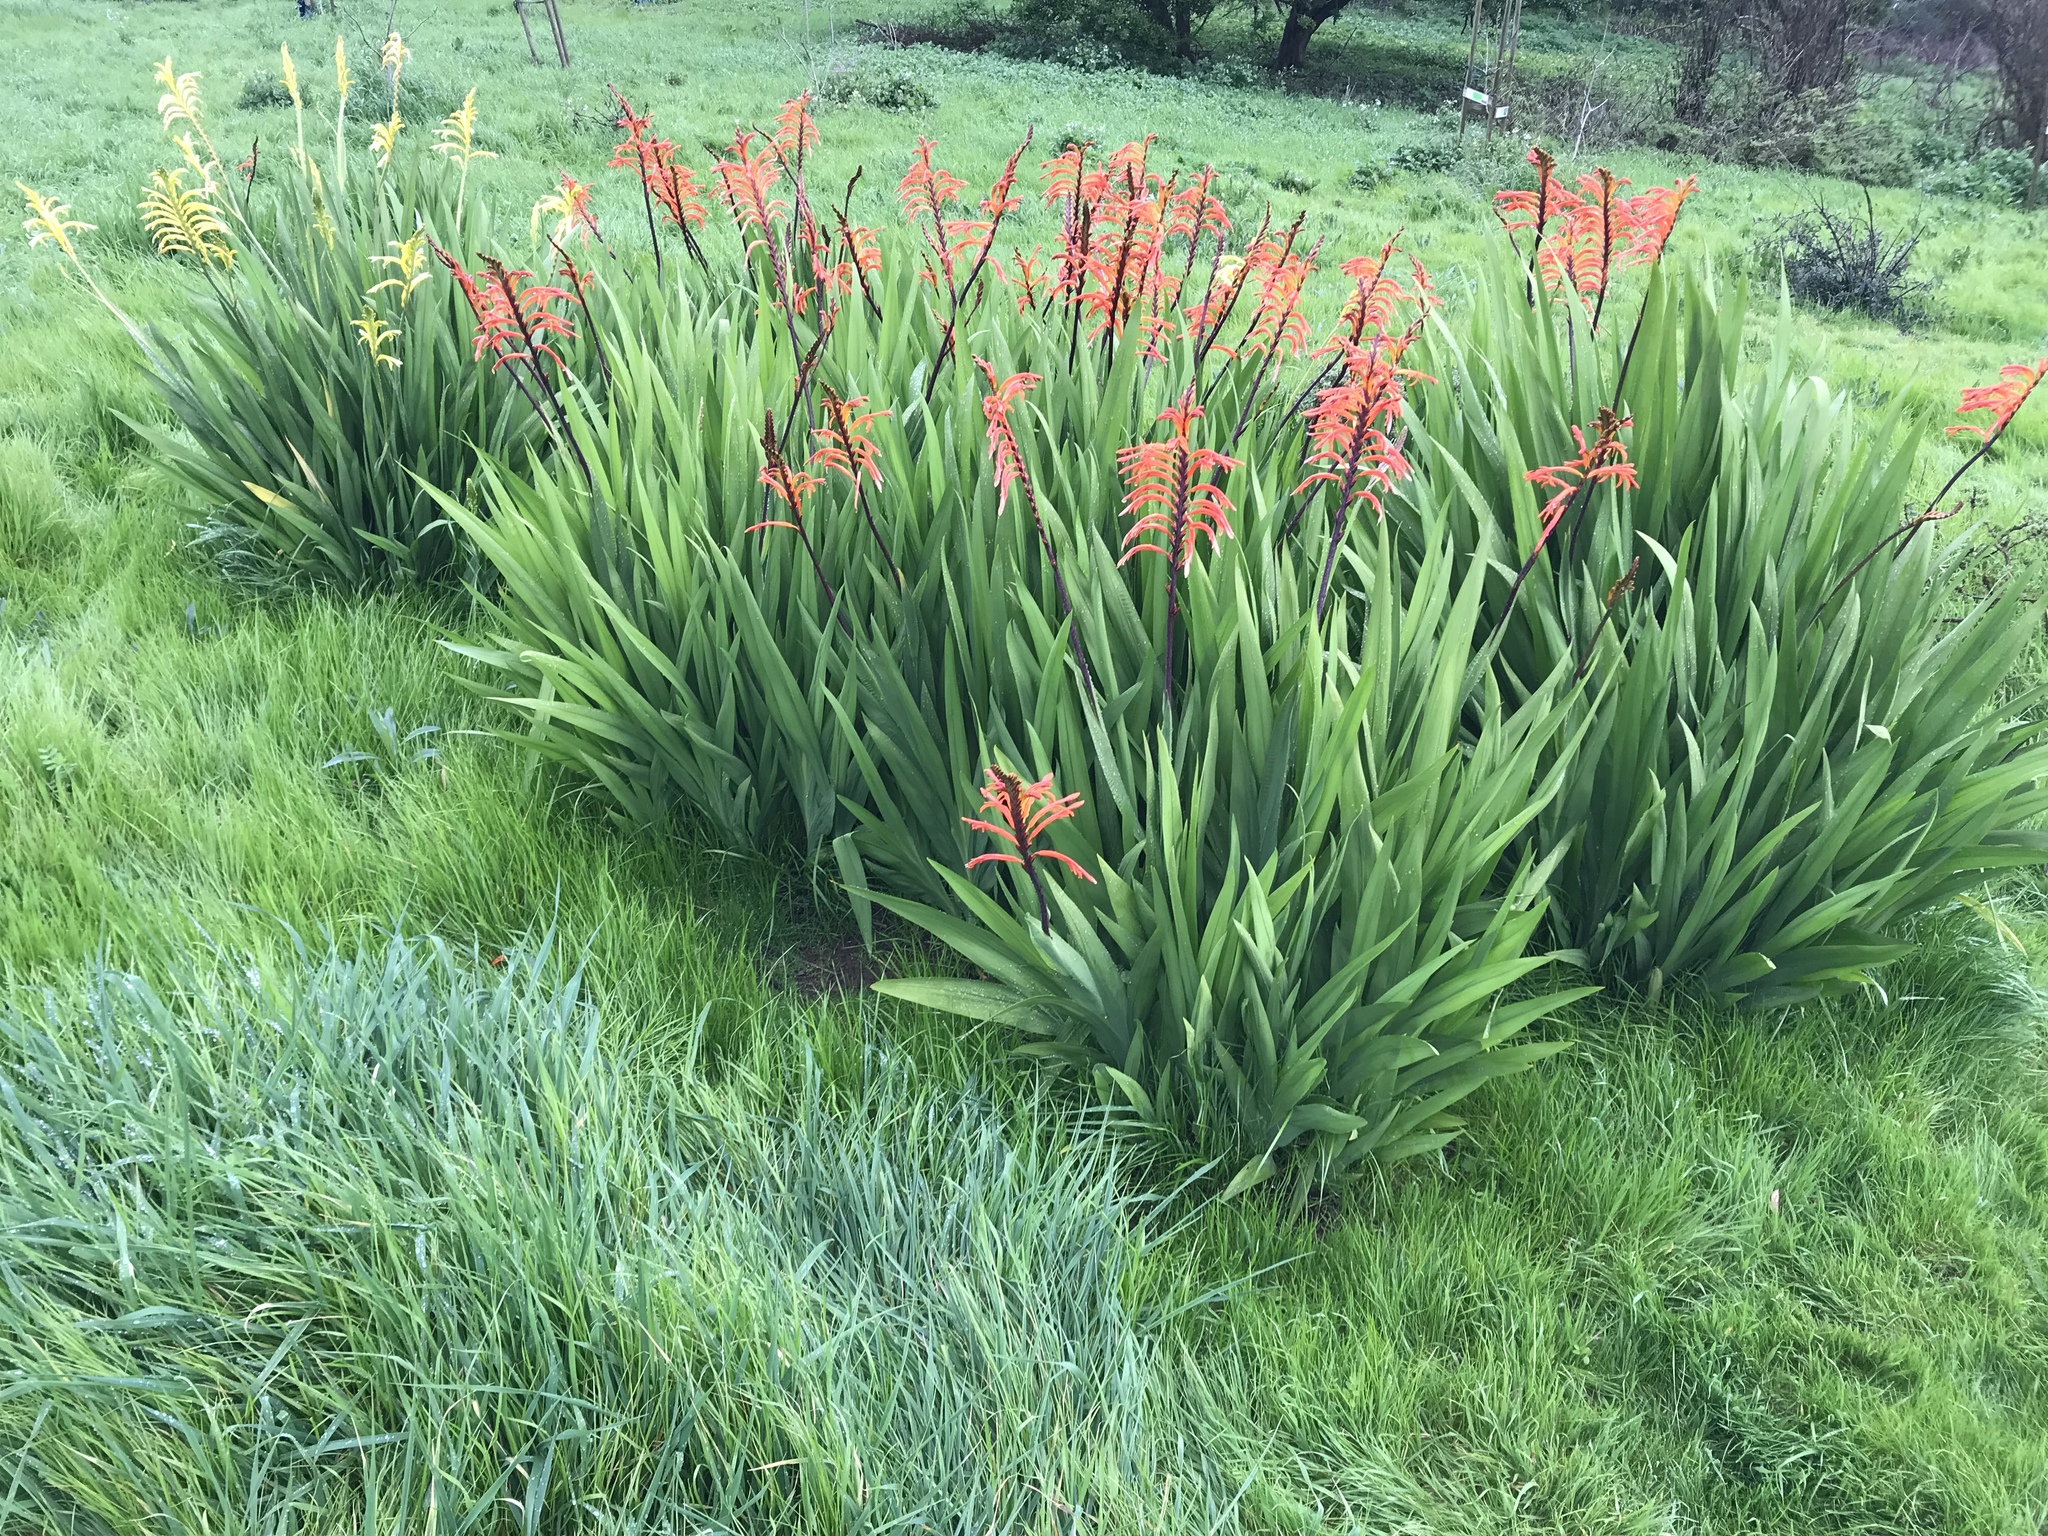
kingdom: Plantae
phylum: Tracheophyta
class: Liliopsida
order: Asparagales
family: Iridaceae
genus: Chasmanthe
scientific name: Chasmanthe floribunda
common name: African cornflag
